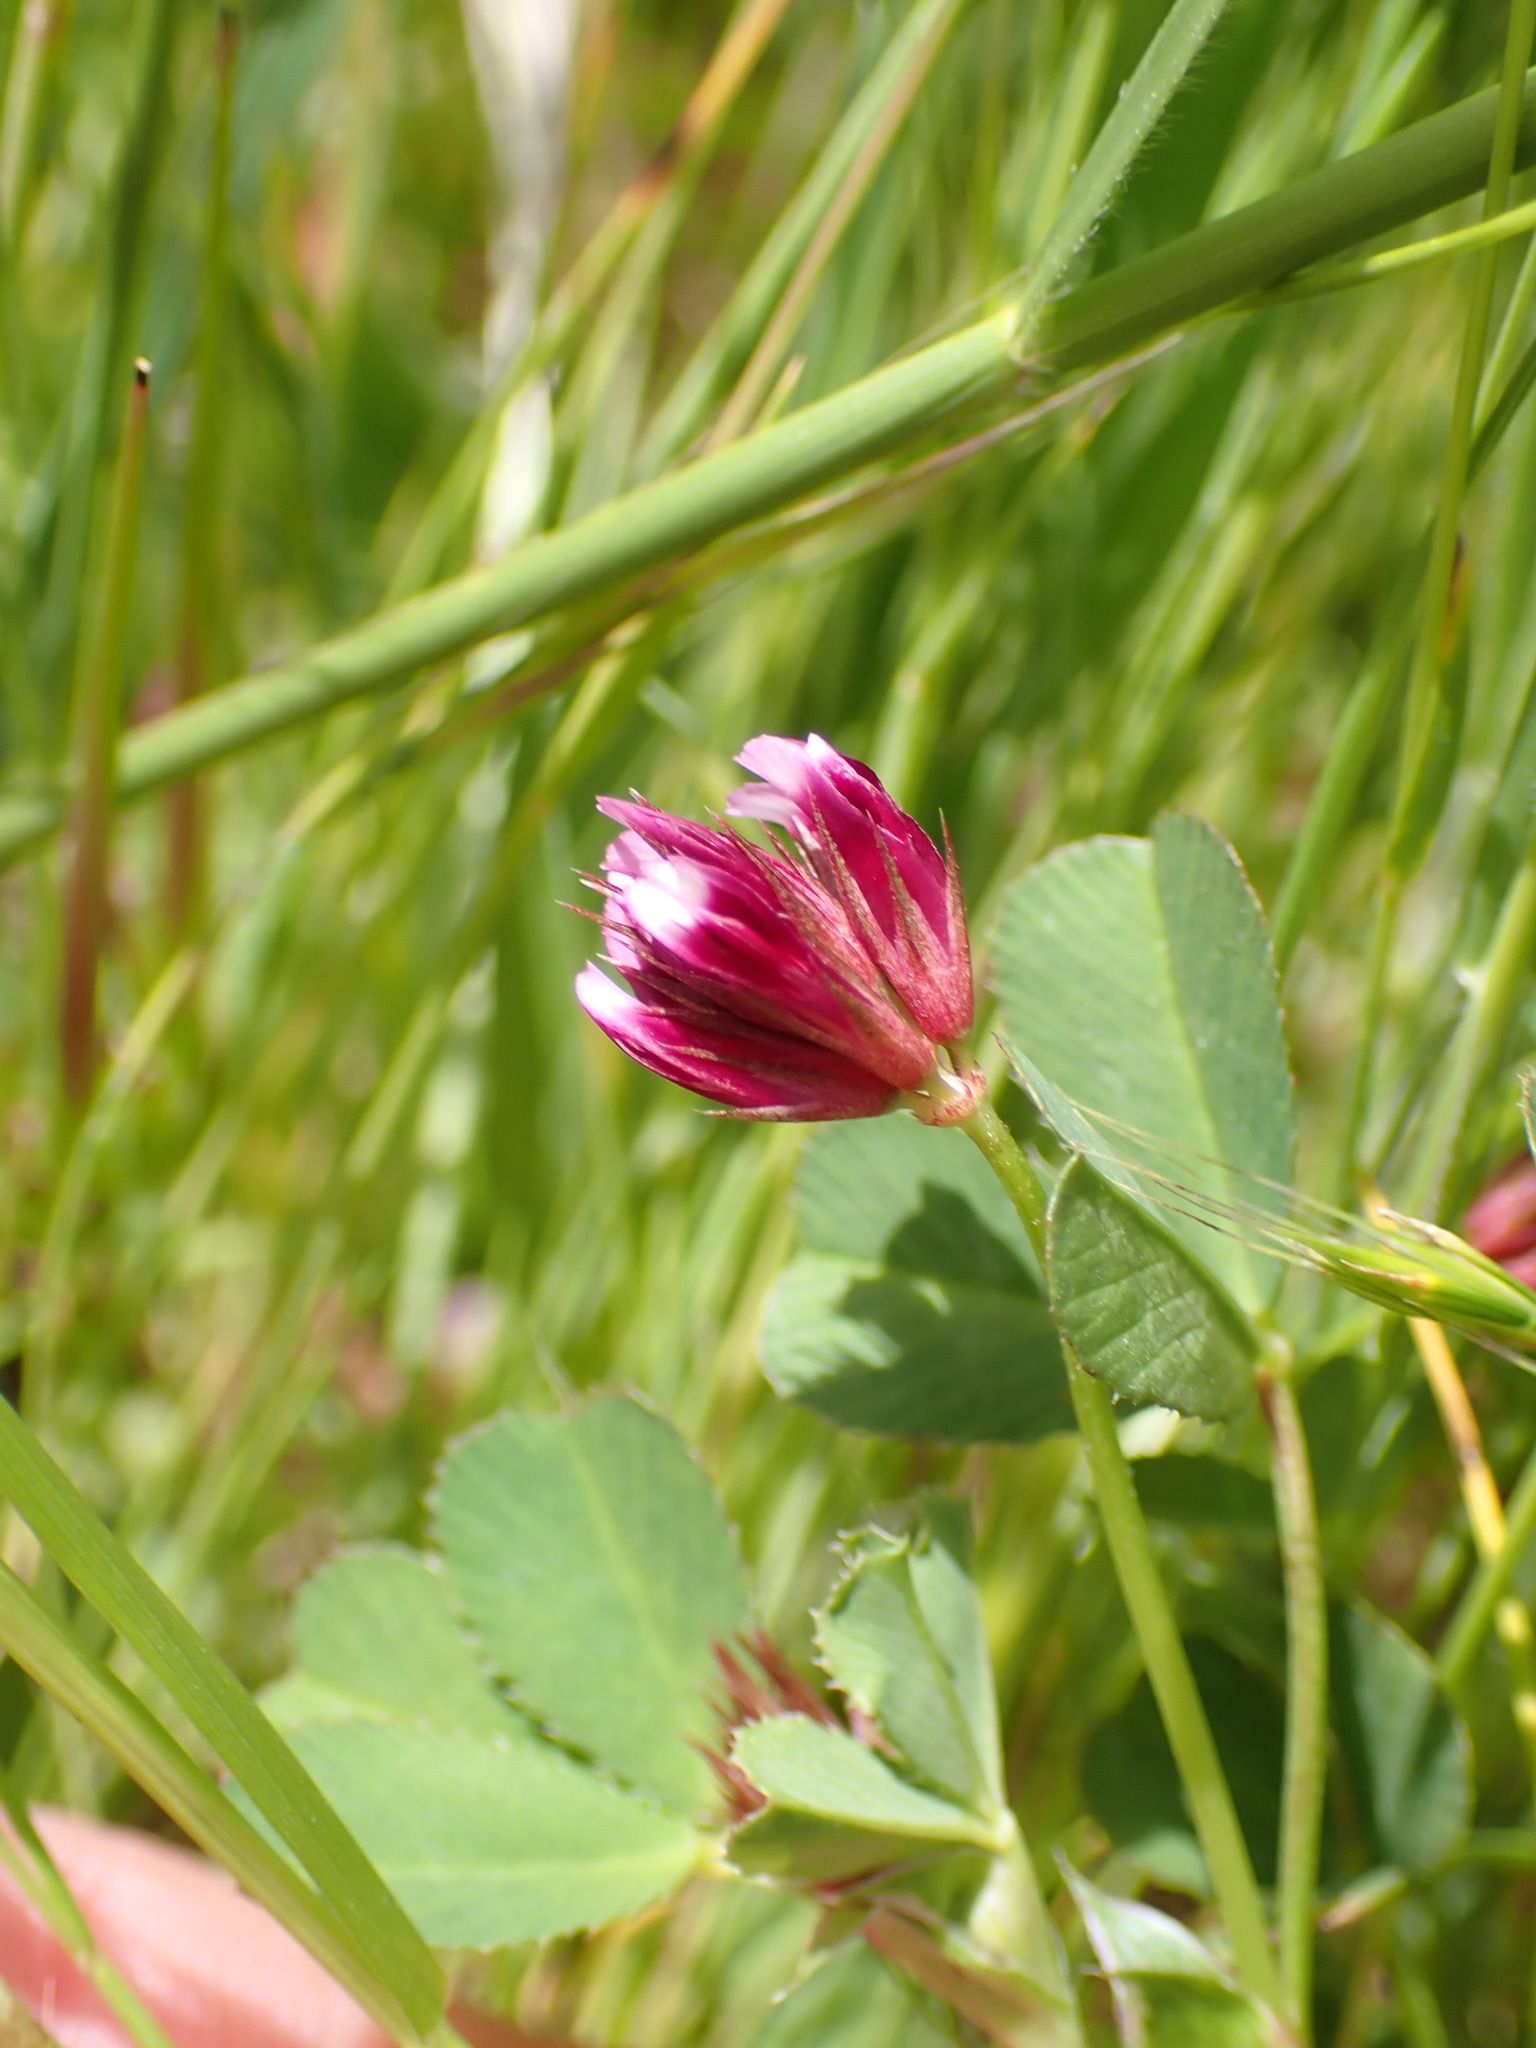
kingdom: Plantae
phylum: Tracheophyta
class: Magnoliopsida
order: Fabales
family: Fabaceae
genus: Trifolium
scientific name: Trifolium gracilentum
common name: Slender clover
